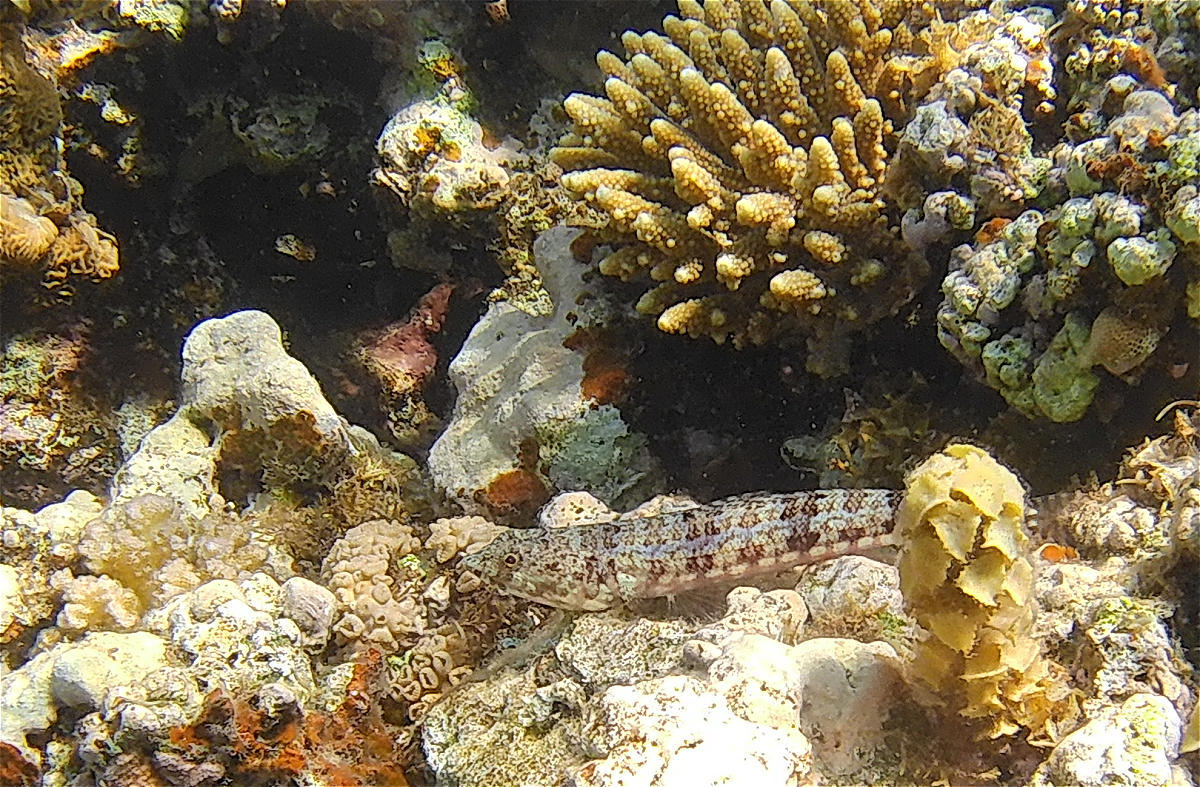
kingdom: Animalia
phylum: Chordata
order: Aulopiformes
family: Synodontidae
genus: Synodus
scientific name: Synodus dermatogenys
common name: Banded lizardfish
